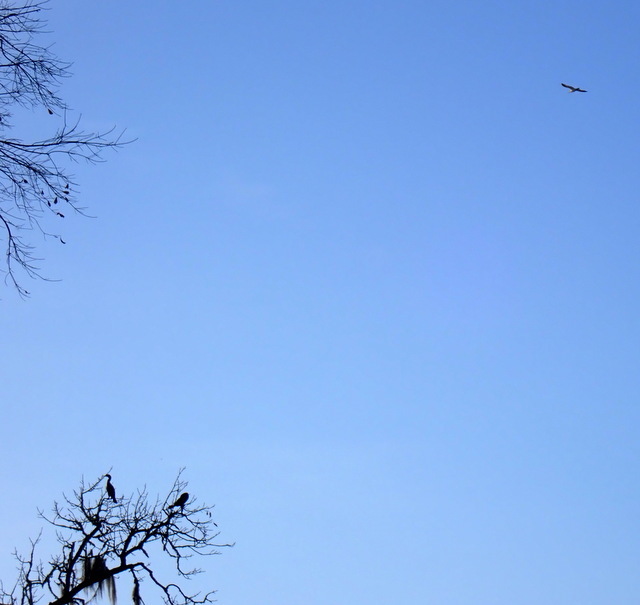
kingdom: Animalia
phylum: Chordata
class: Aves
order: Suliformes
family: Phalacrocoracidae
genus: Phalacrocorax
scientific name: Phalacrocorax auritus
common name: Double-crested cormorant
